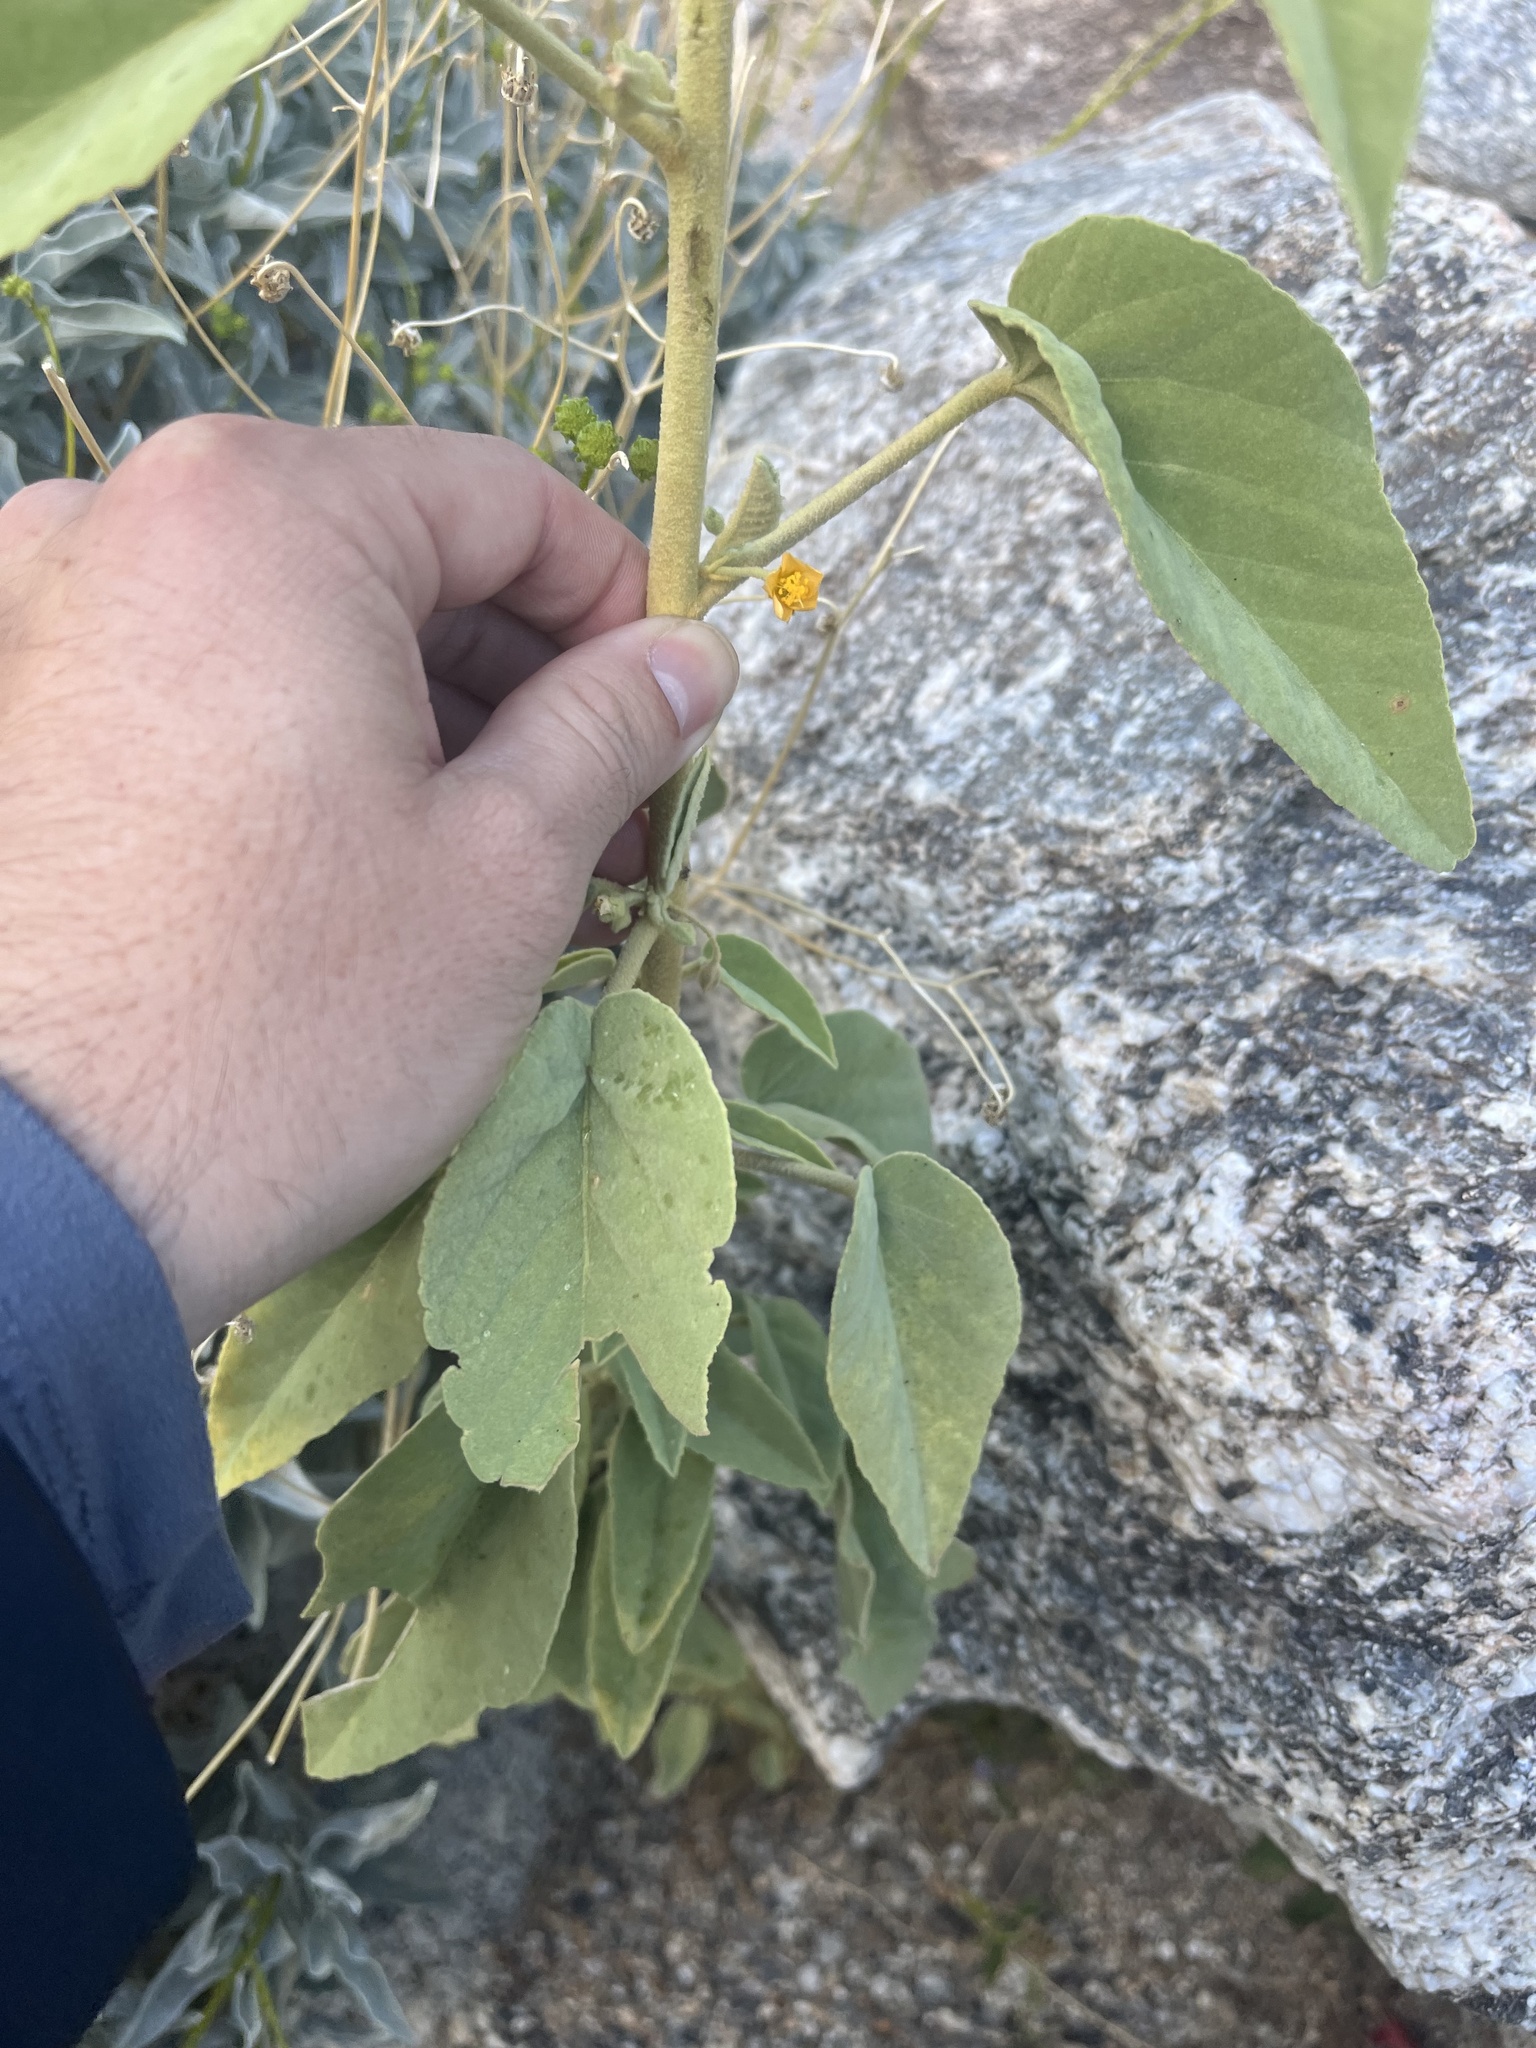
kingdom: Plantae
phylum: Tracheophyta
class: Magnoliopsida
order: Malvales
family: Malvaceae
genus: Horsfordia
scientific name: Horsfordia newberryi
